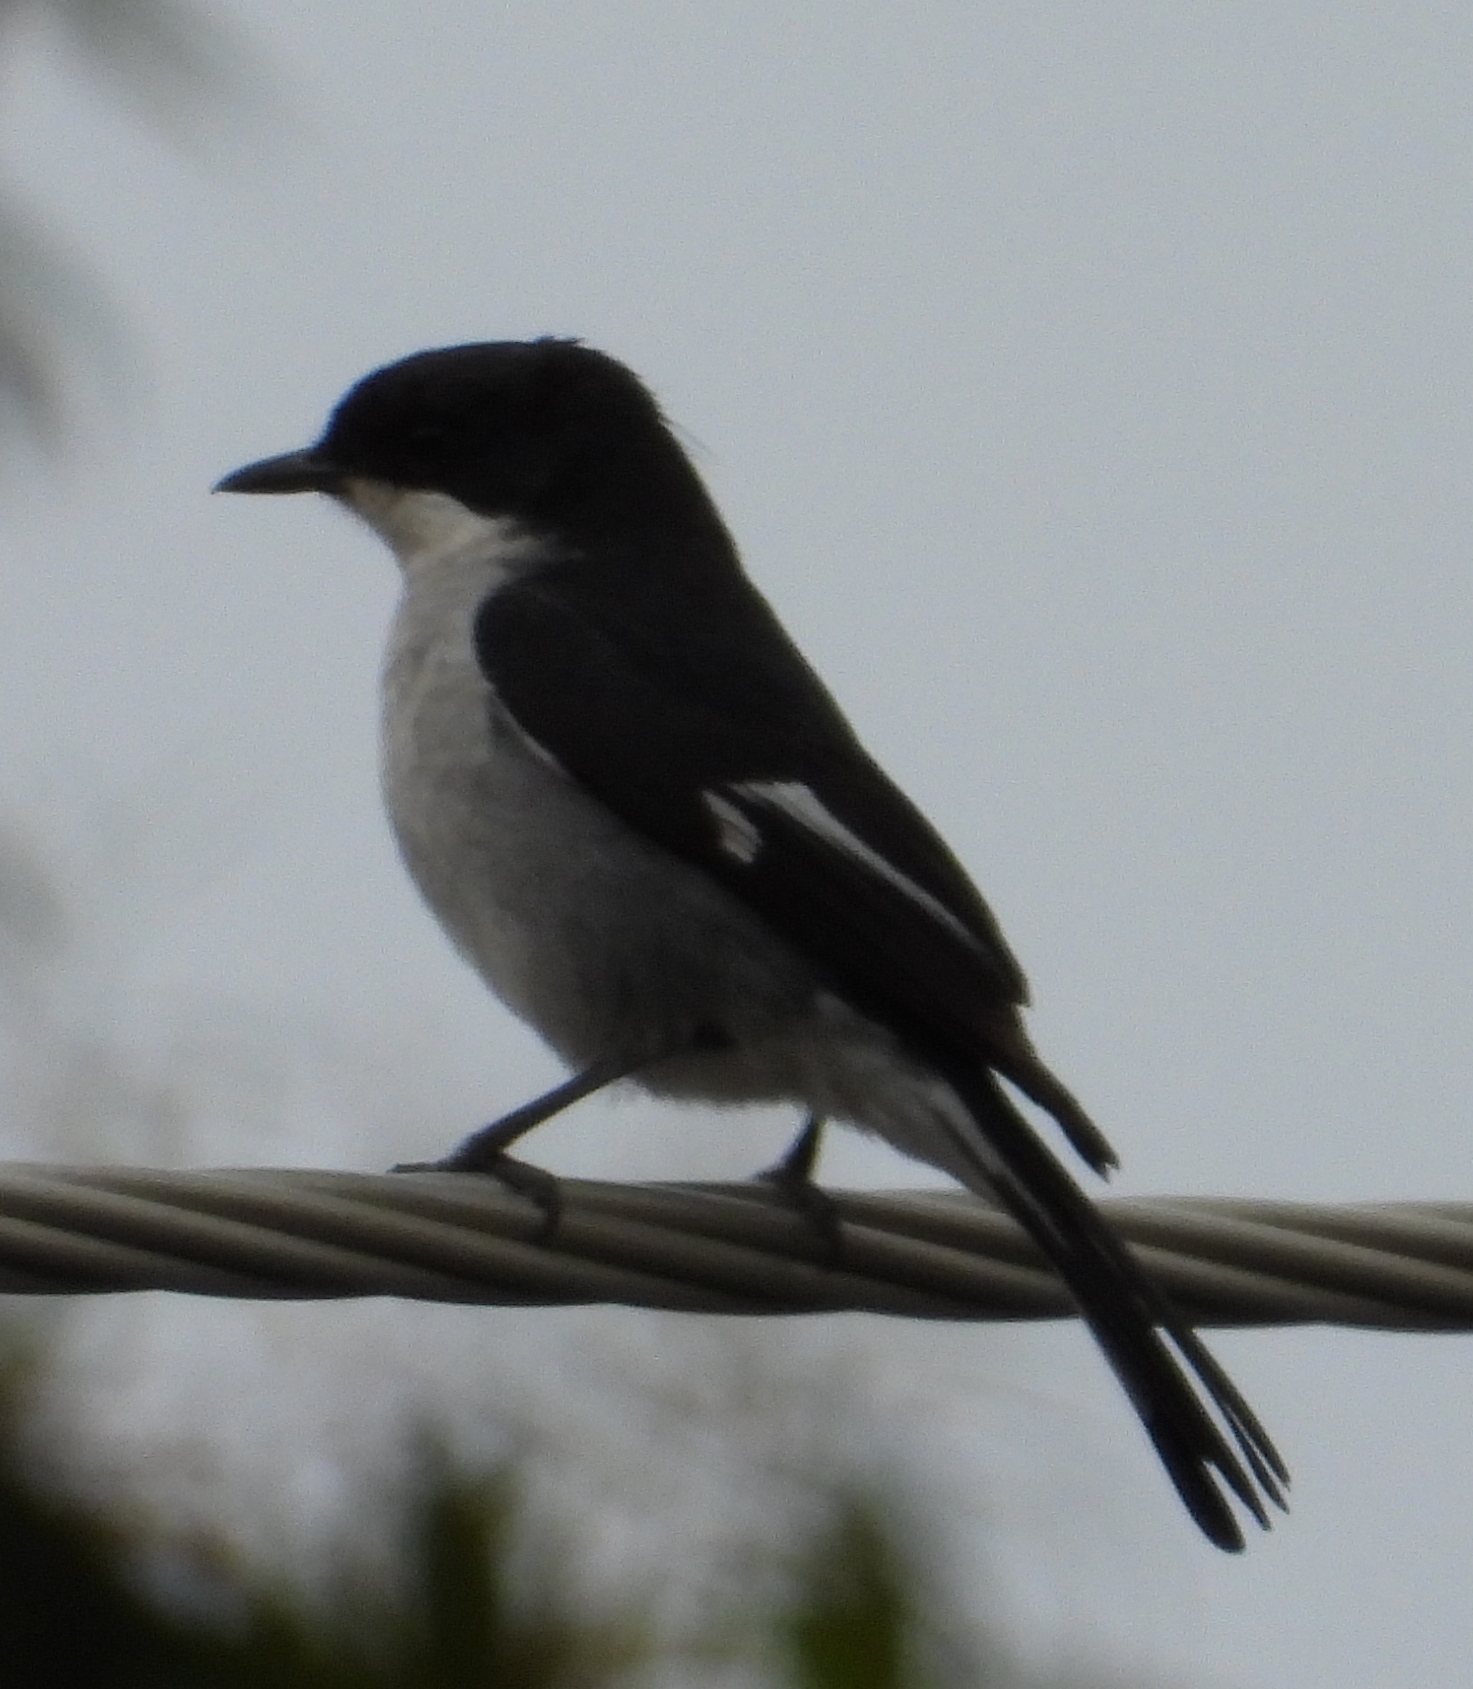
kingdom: Animalia
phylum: Chordata
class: Aves
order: Passeriformes
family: Muscicapidae
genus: Sigelus
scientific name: Sigelus silens
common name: Fiscal flycatcher
